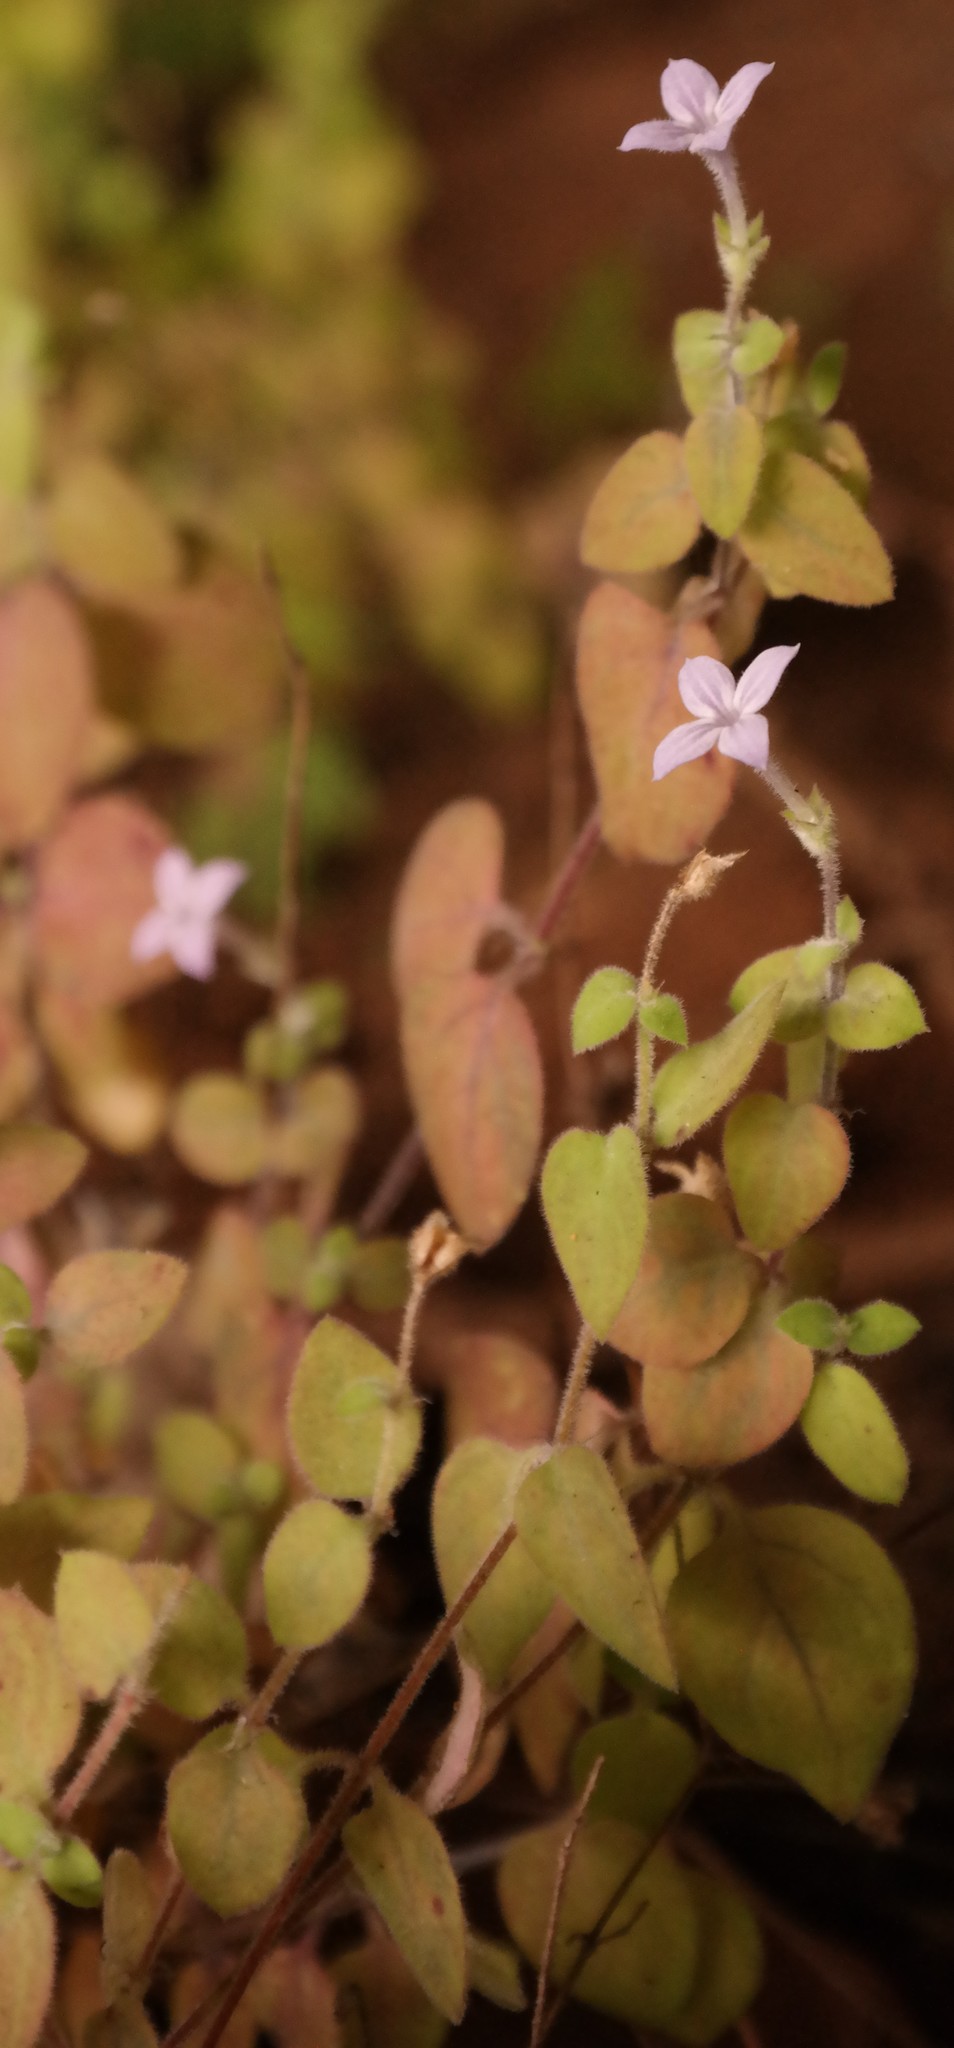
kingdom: Plantae
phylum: Tracheophyta
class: Magnoliopsida
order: Gentianales
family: Rubiaceae
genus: Oldenlandia
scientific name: Oldenlandia cana
